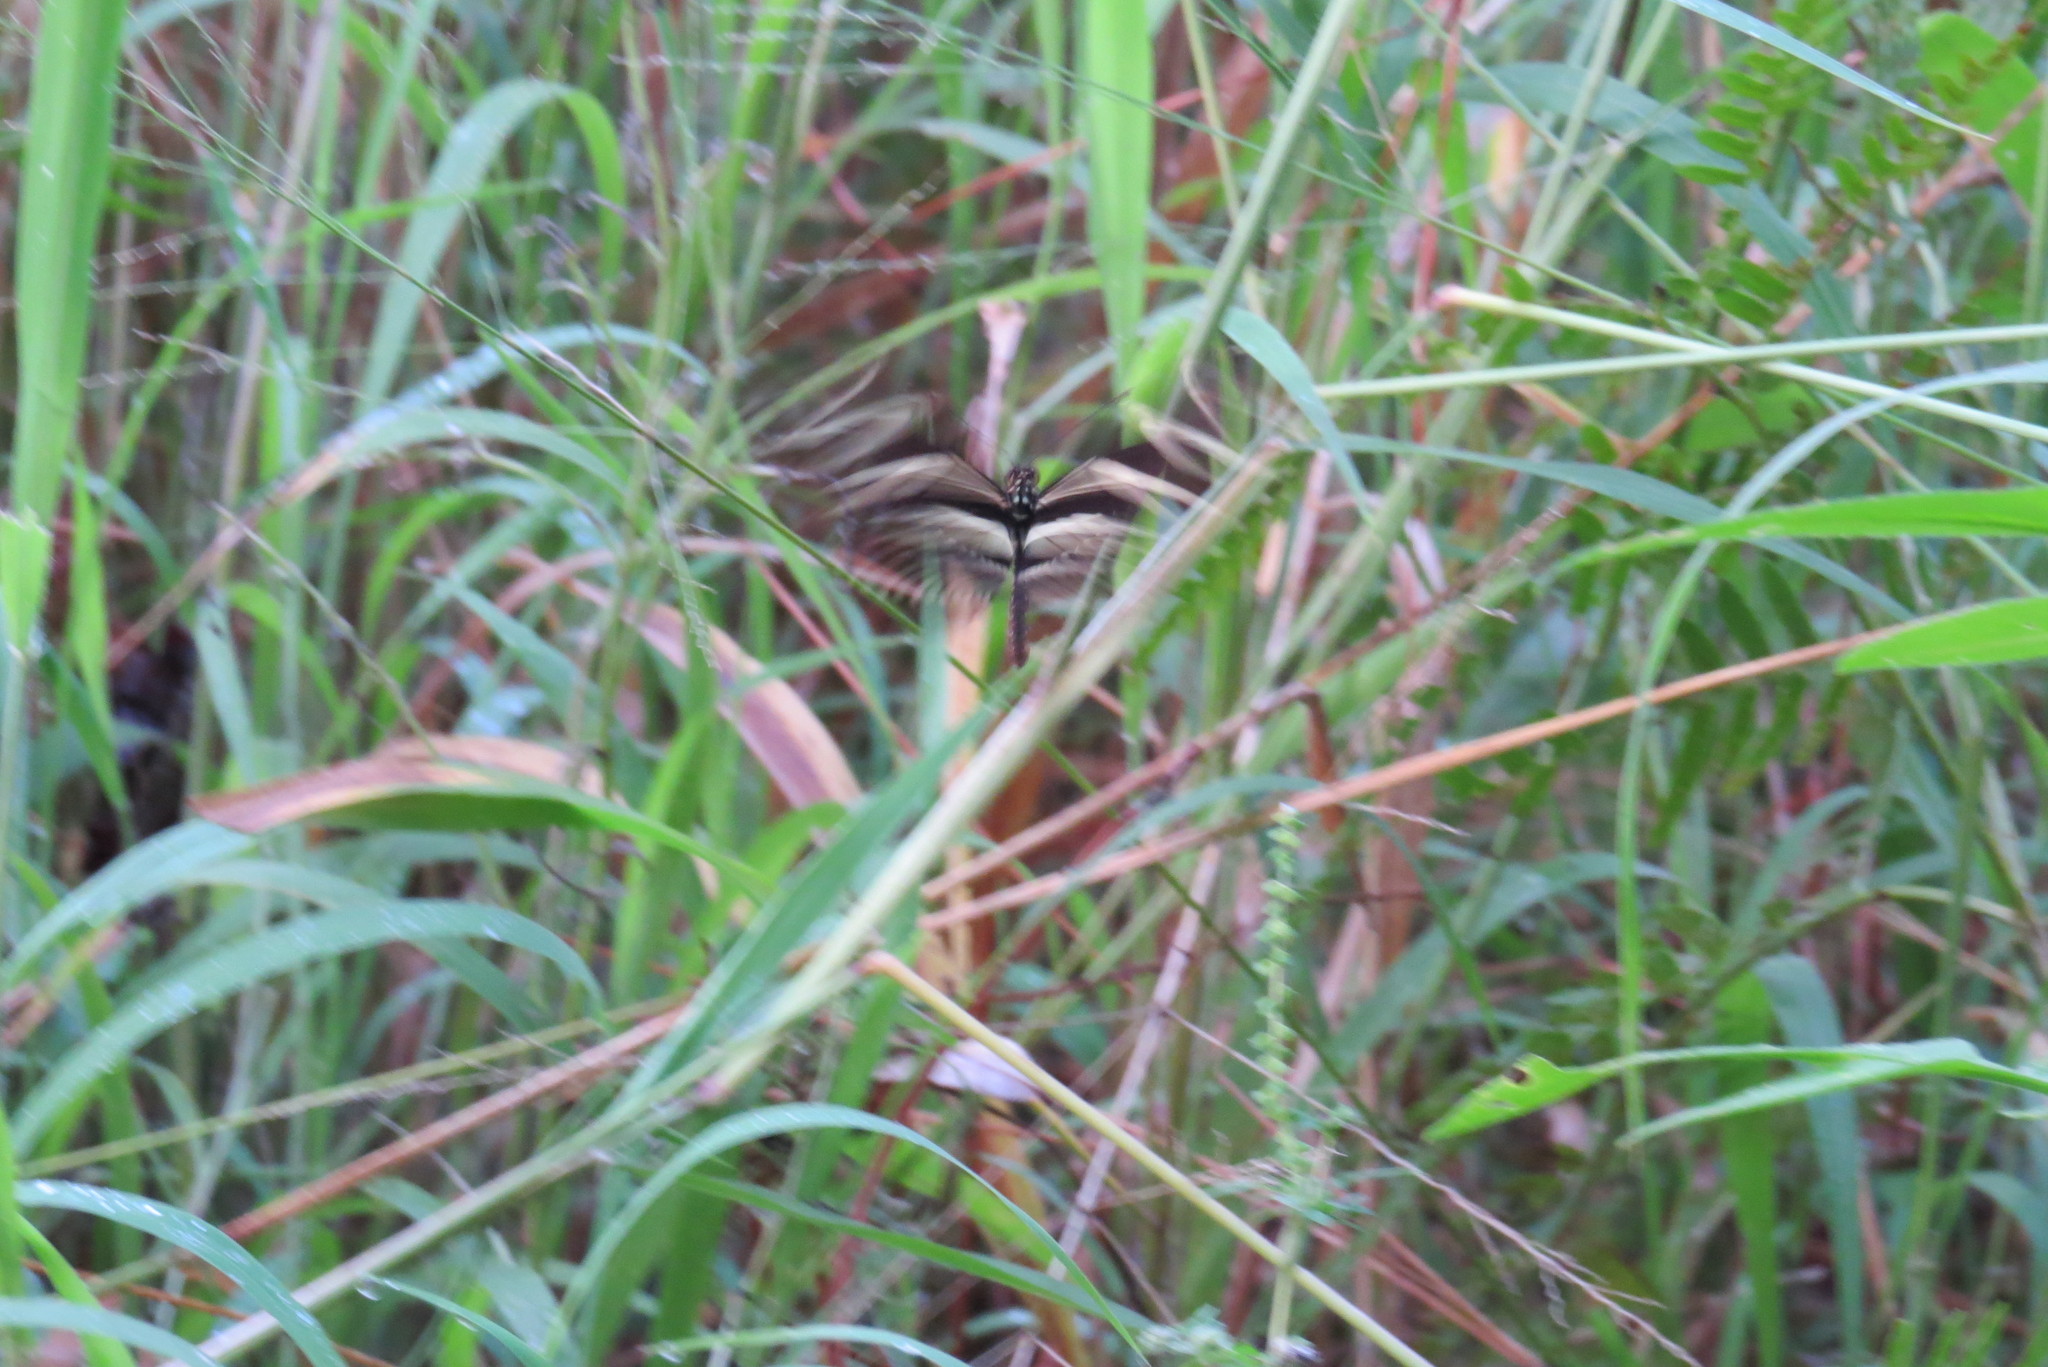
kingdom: Animalia
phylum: Arthropoda
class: Insecta
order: Lepidoptera
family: Nymphalidae
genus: Heliconius
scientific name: Heliconius charithonia
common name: Zebra long wing
